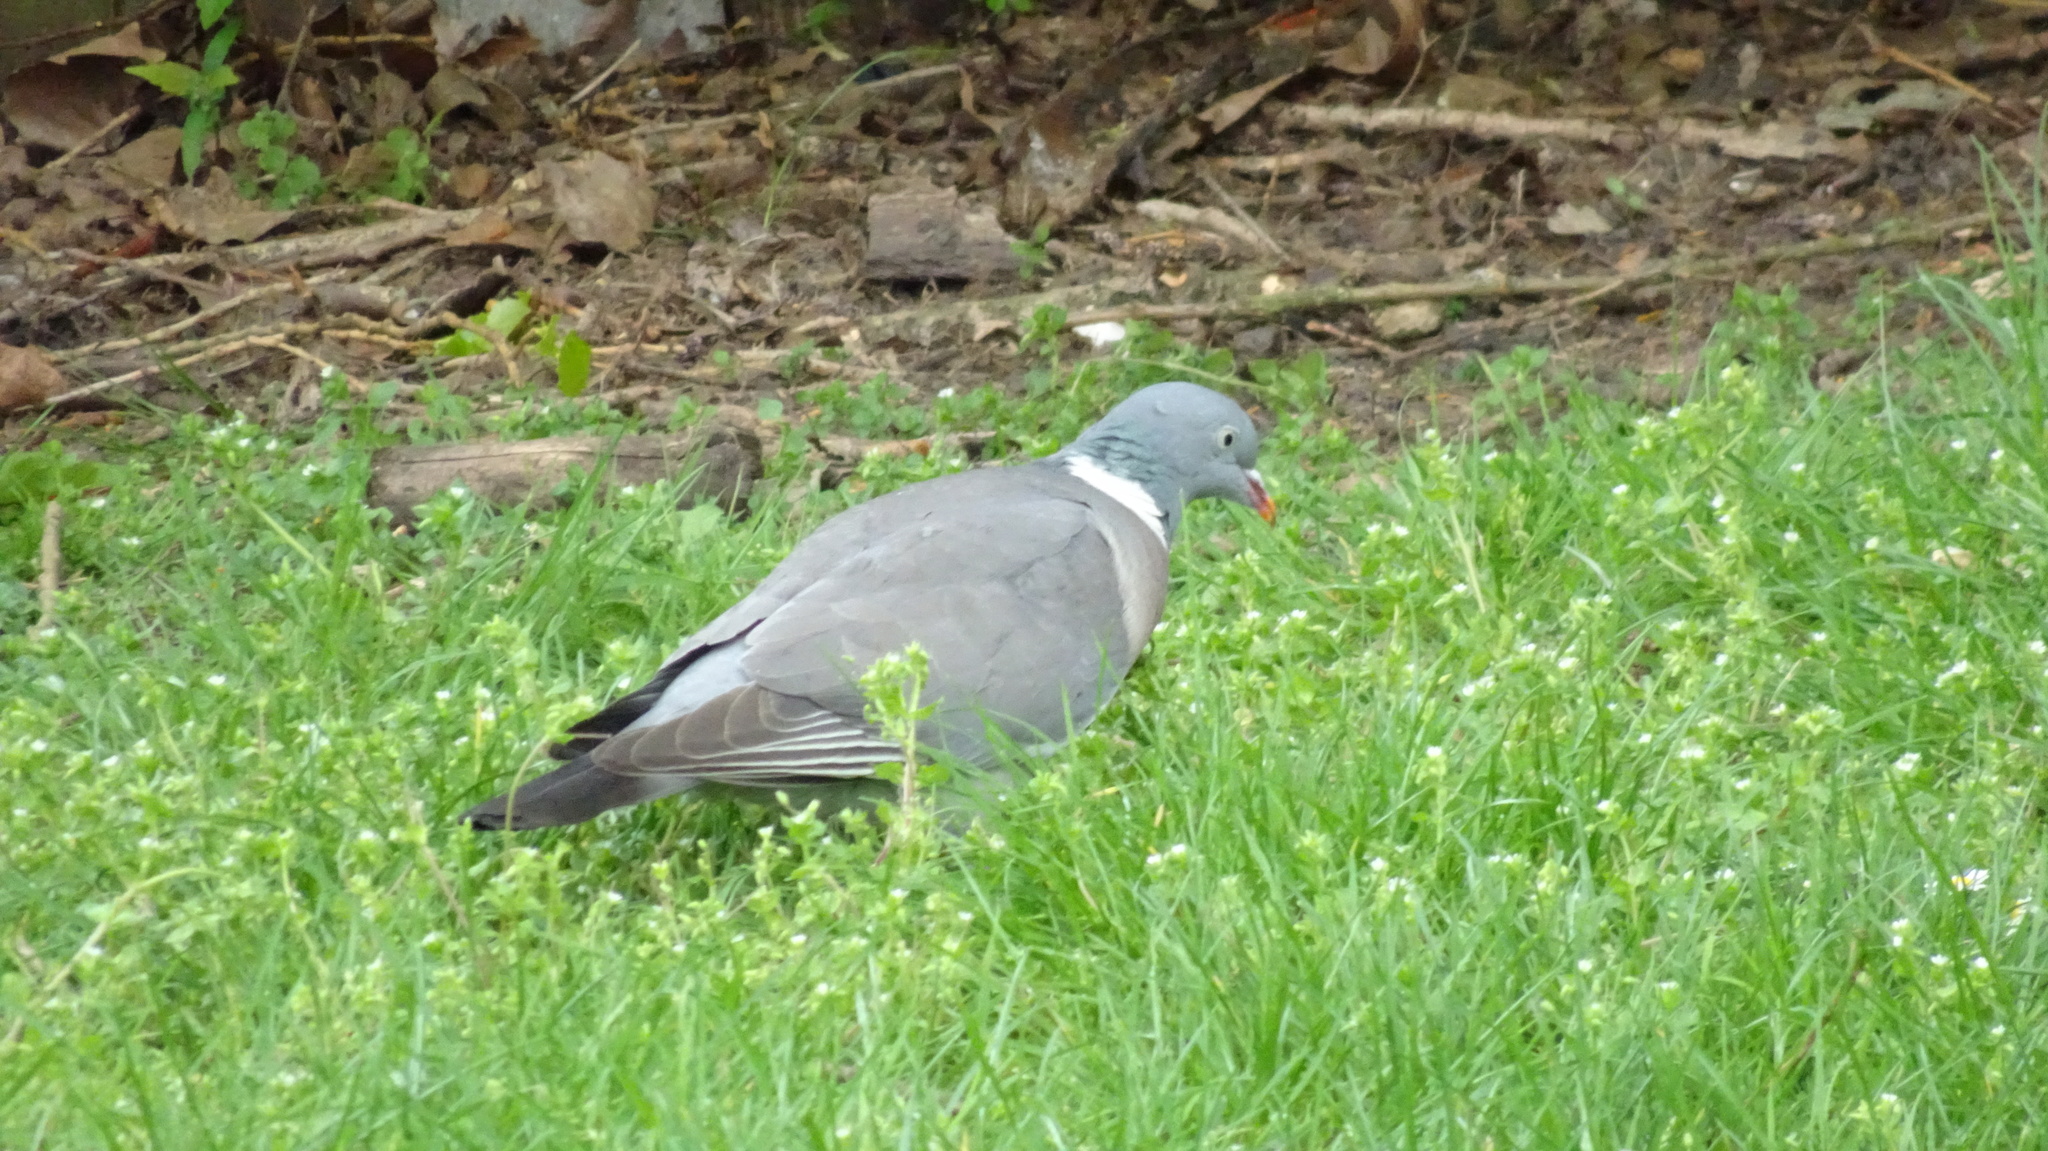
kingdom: Animalia
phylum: Chordata
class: Aves
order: Columbiformes
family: Columbidae
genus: Columba
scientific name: Columba livia
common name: Rock pigeon
